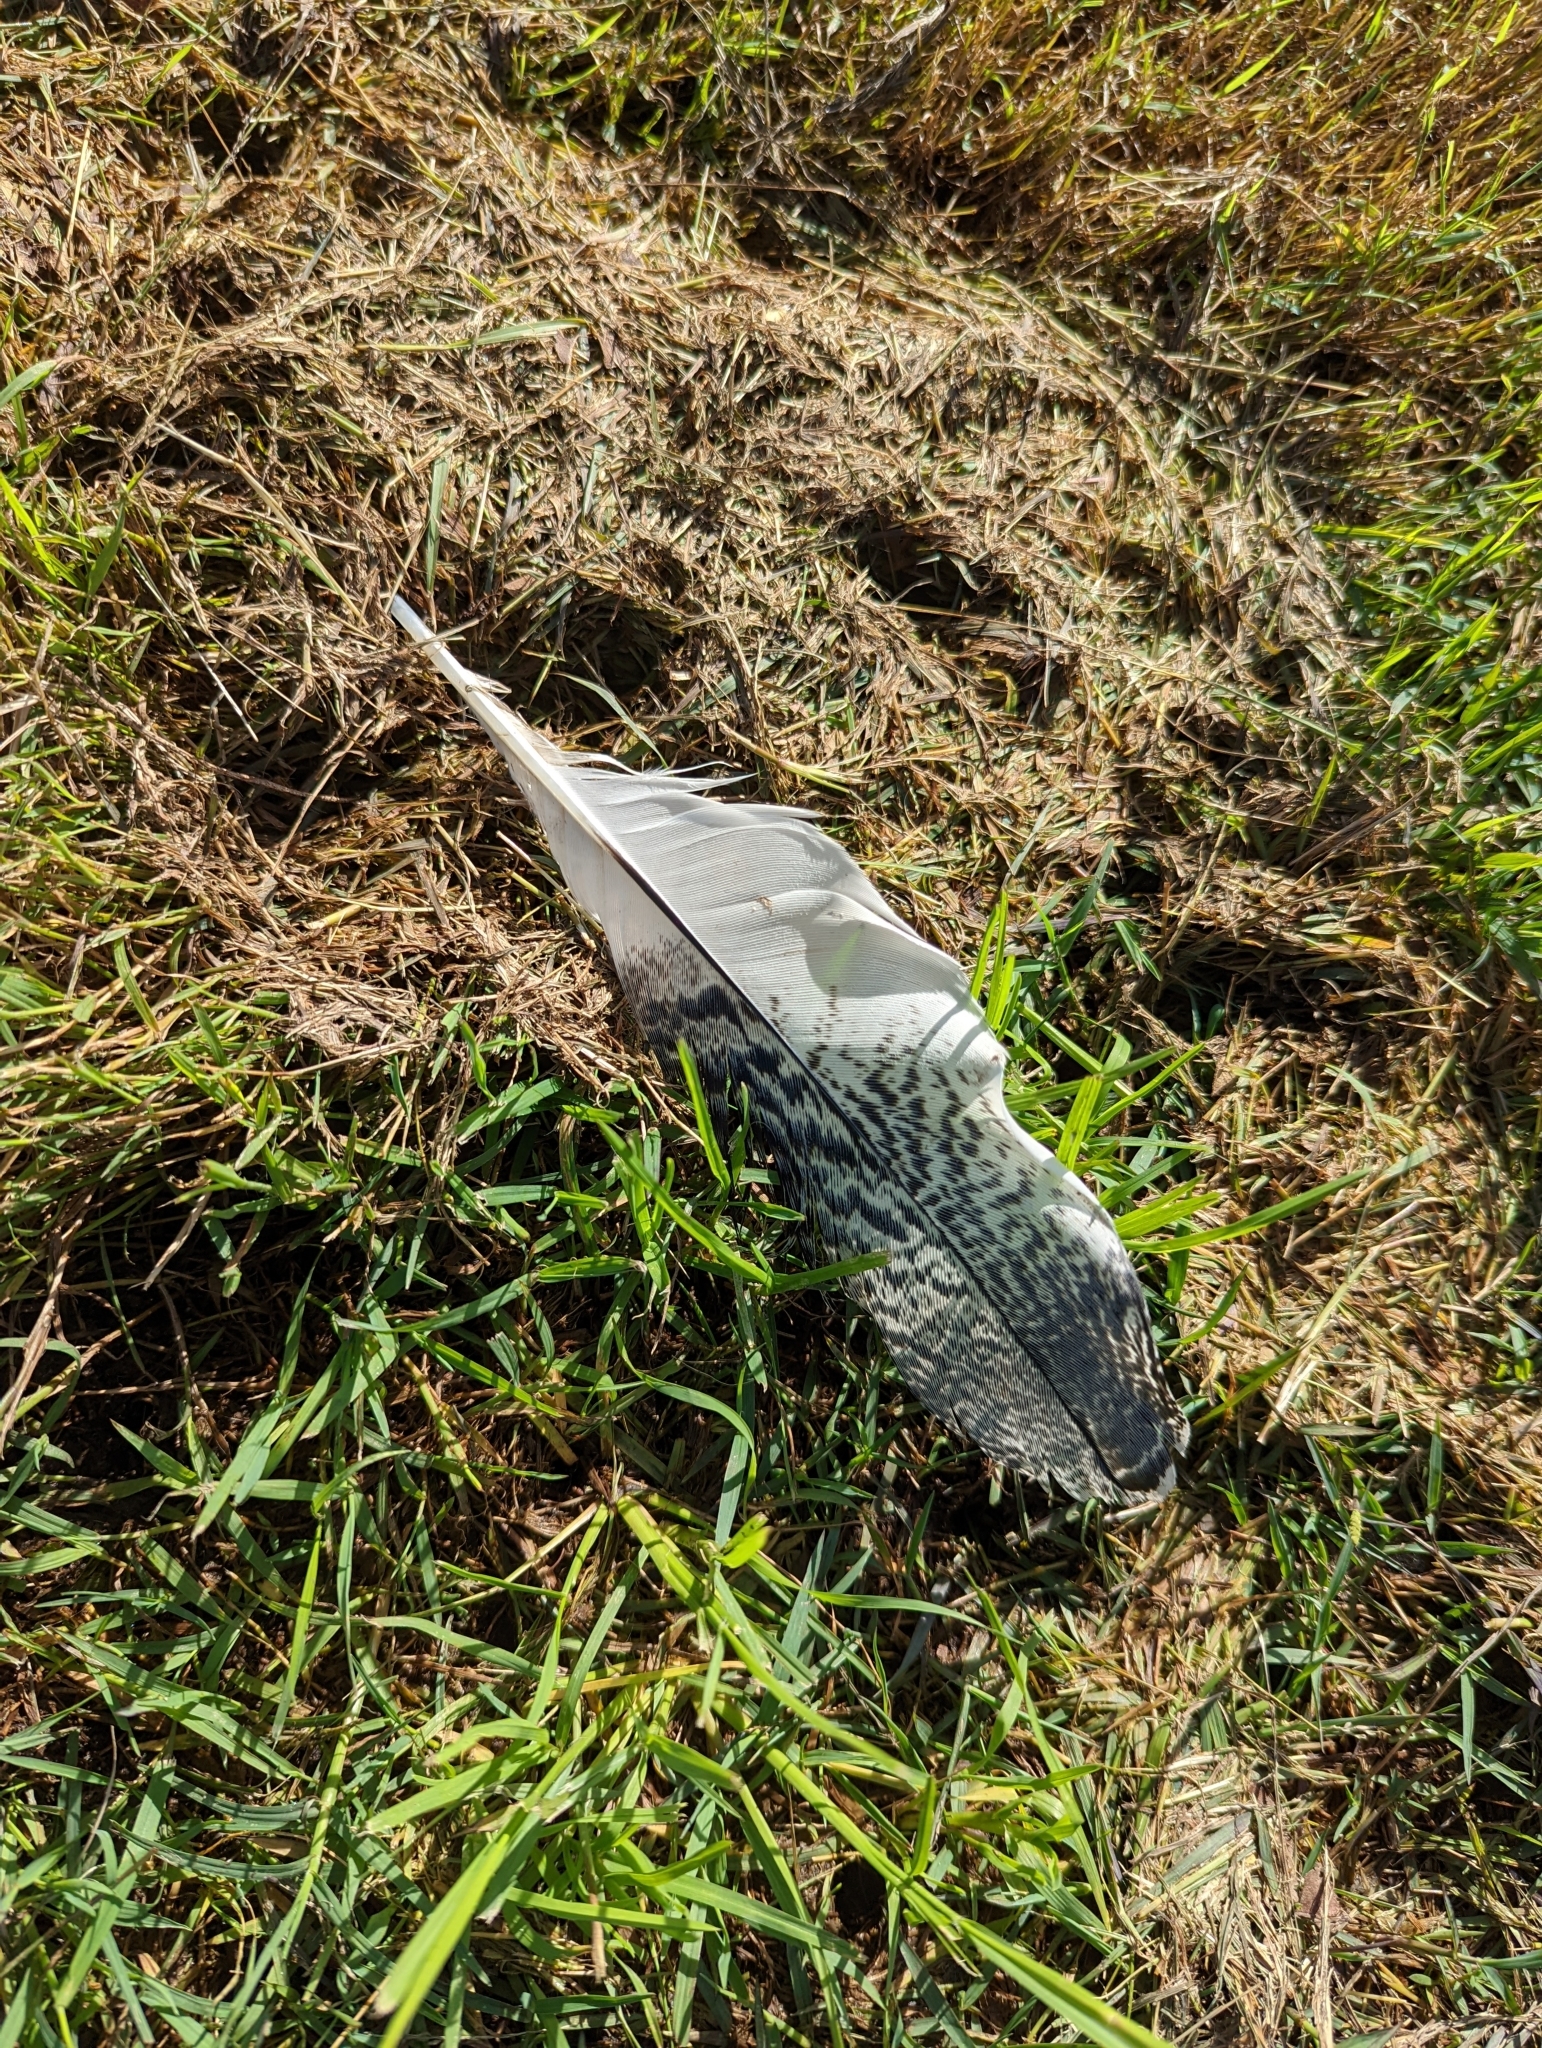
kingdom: Animalia
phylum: Chordata
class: Aves
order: Pelecaniformes
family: Threskiornithidae
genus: Threskiornis
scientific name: Threskiornis molucca
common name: Australian white ibis
